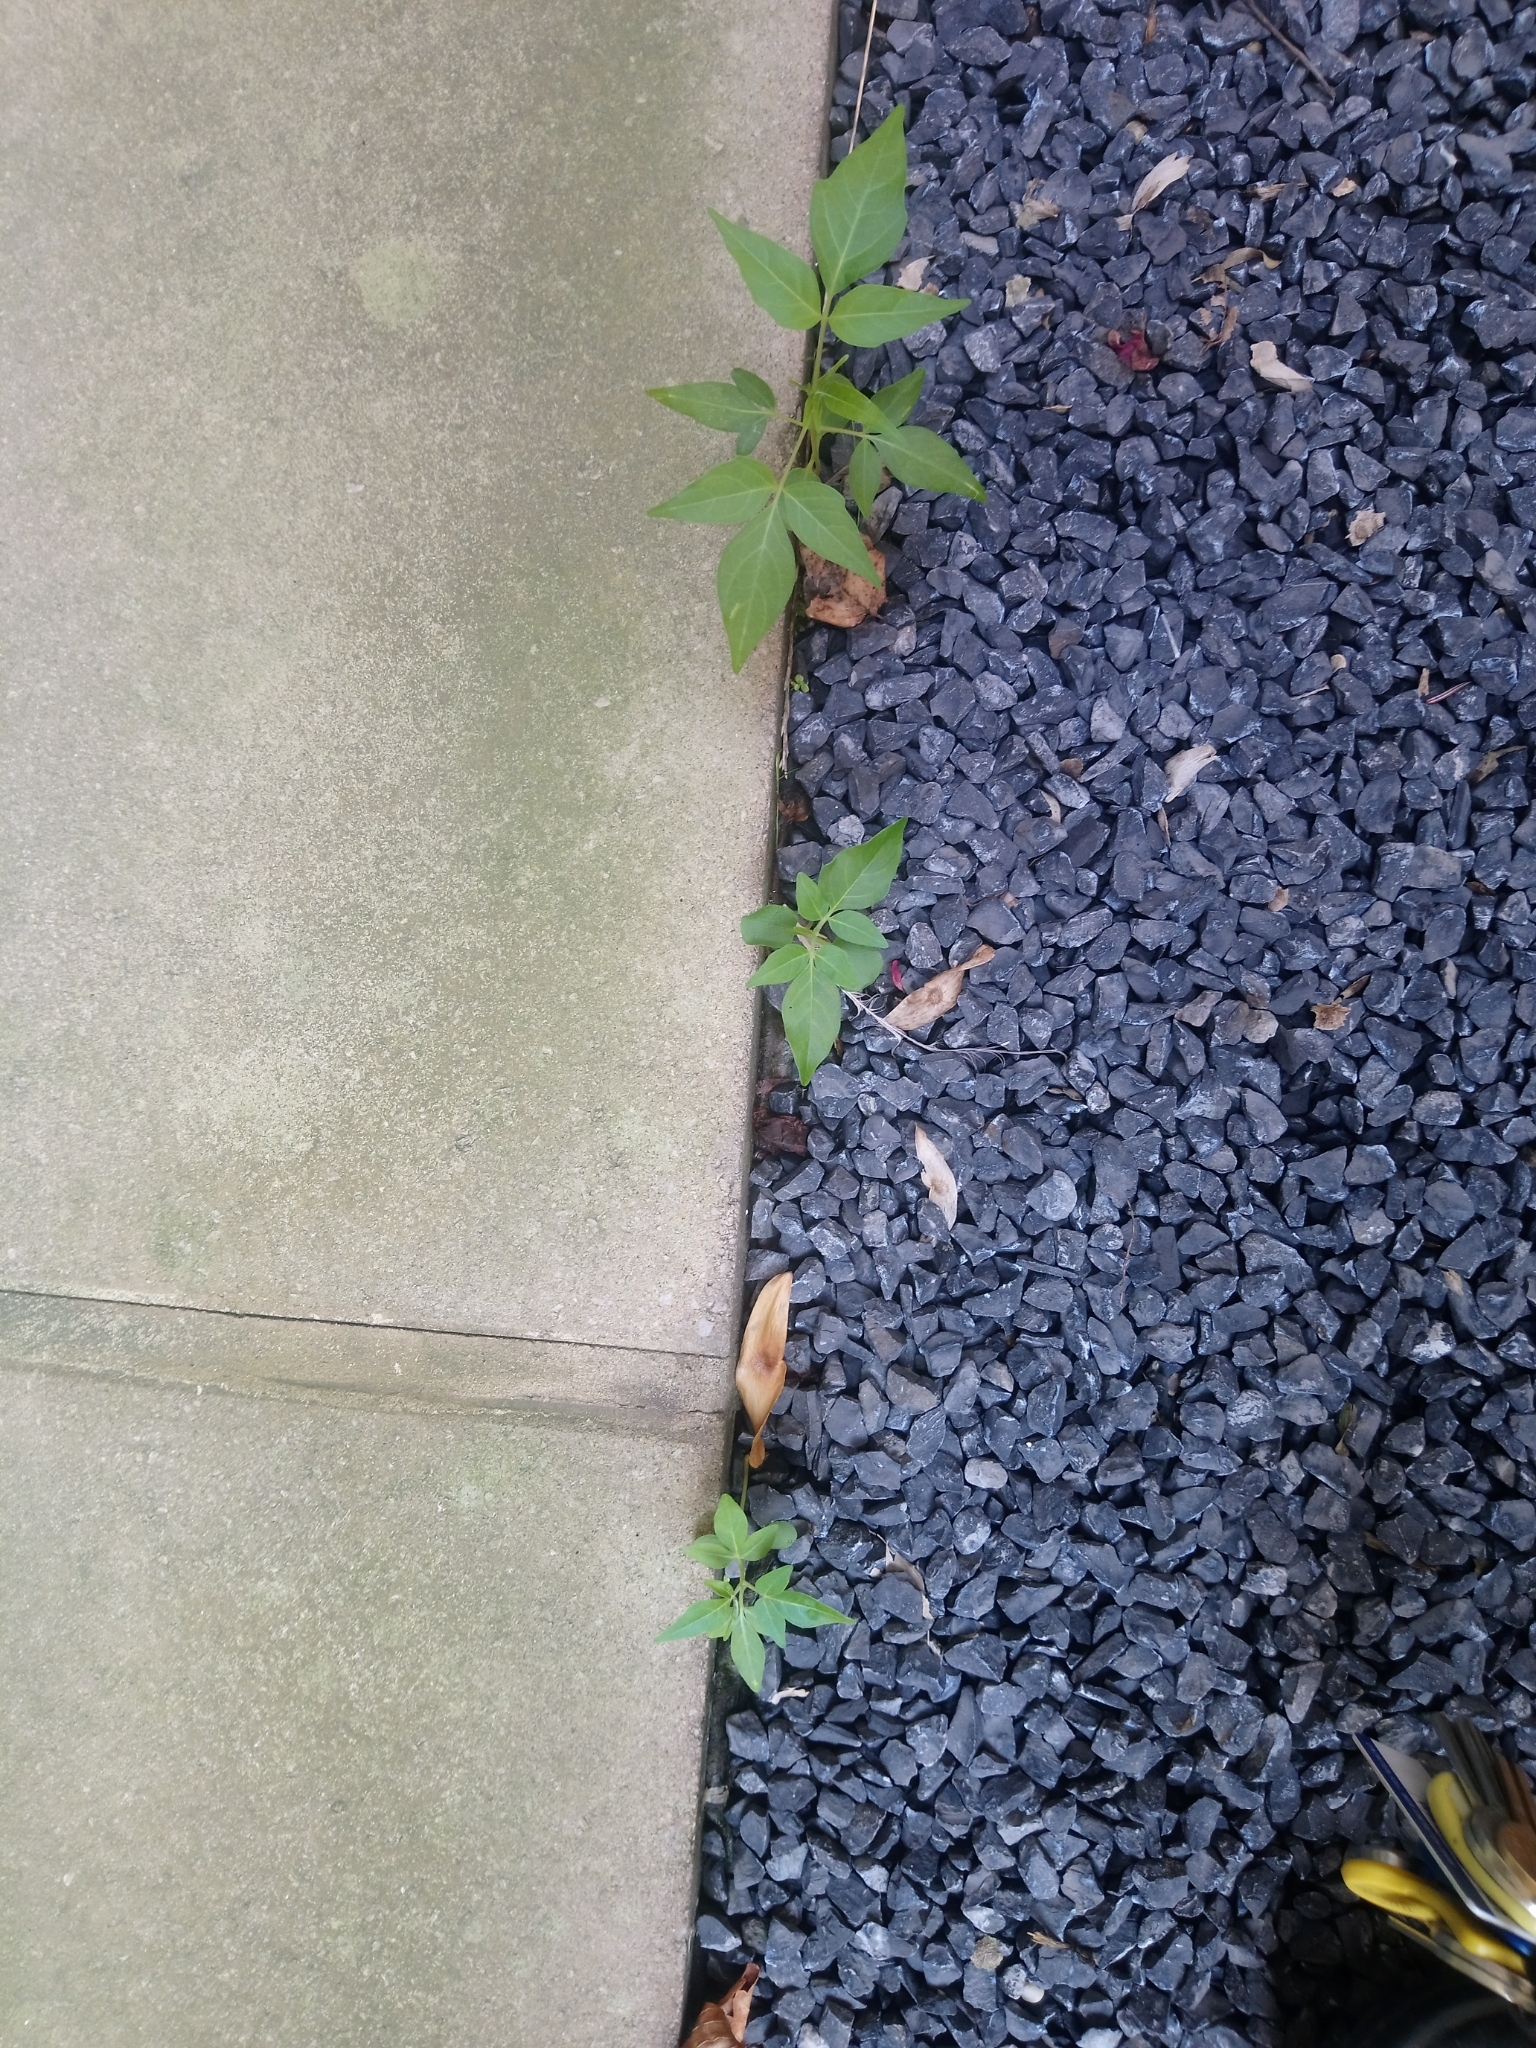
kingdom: Plantae
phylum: Tracheophyta
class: Magnoliopsida
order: Sapindales
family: Simaroubaceae
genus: Ailanthus
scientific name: Ailanthus altissima
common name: Tree-of-heaven
